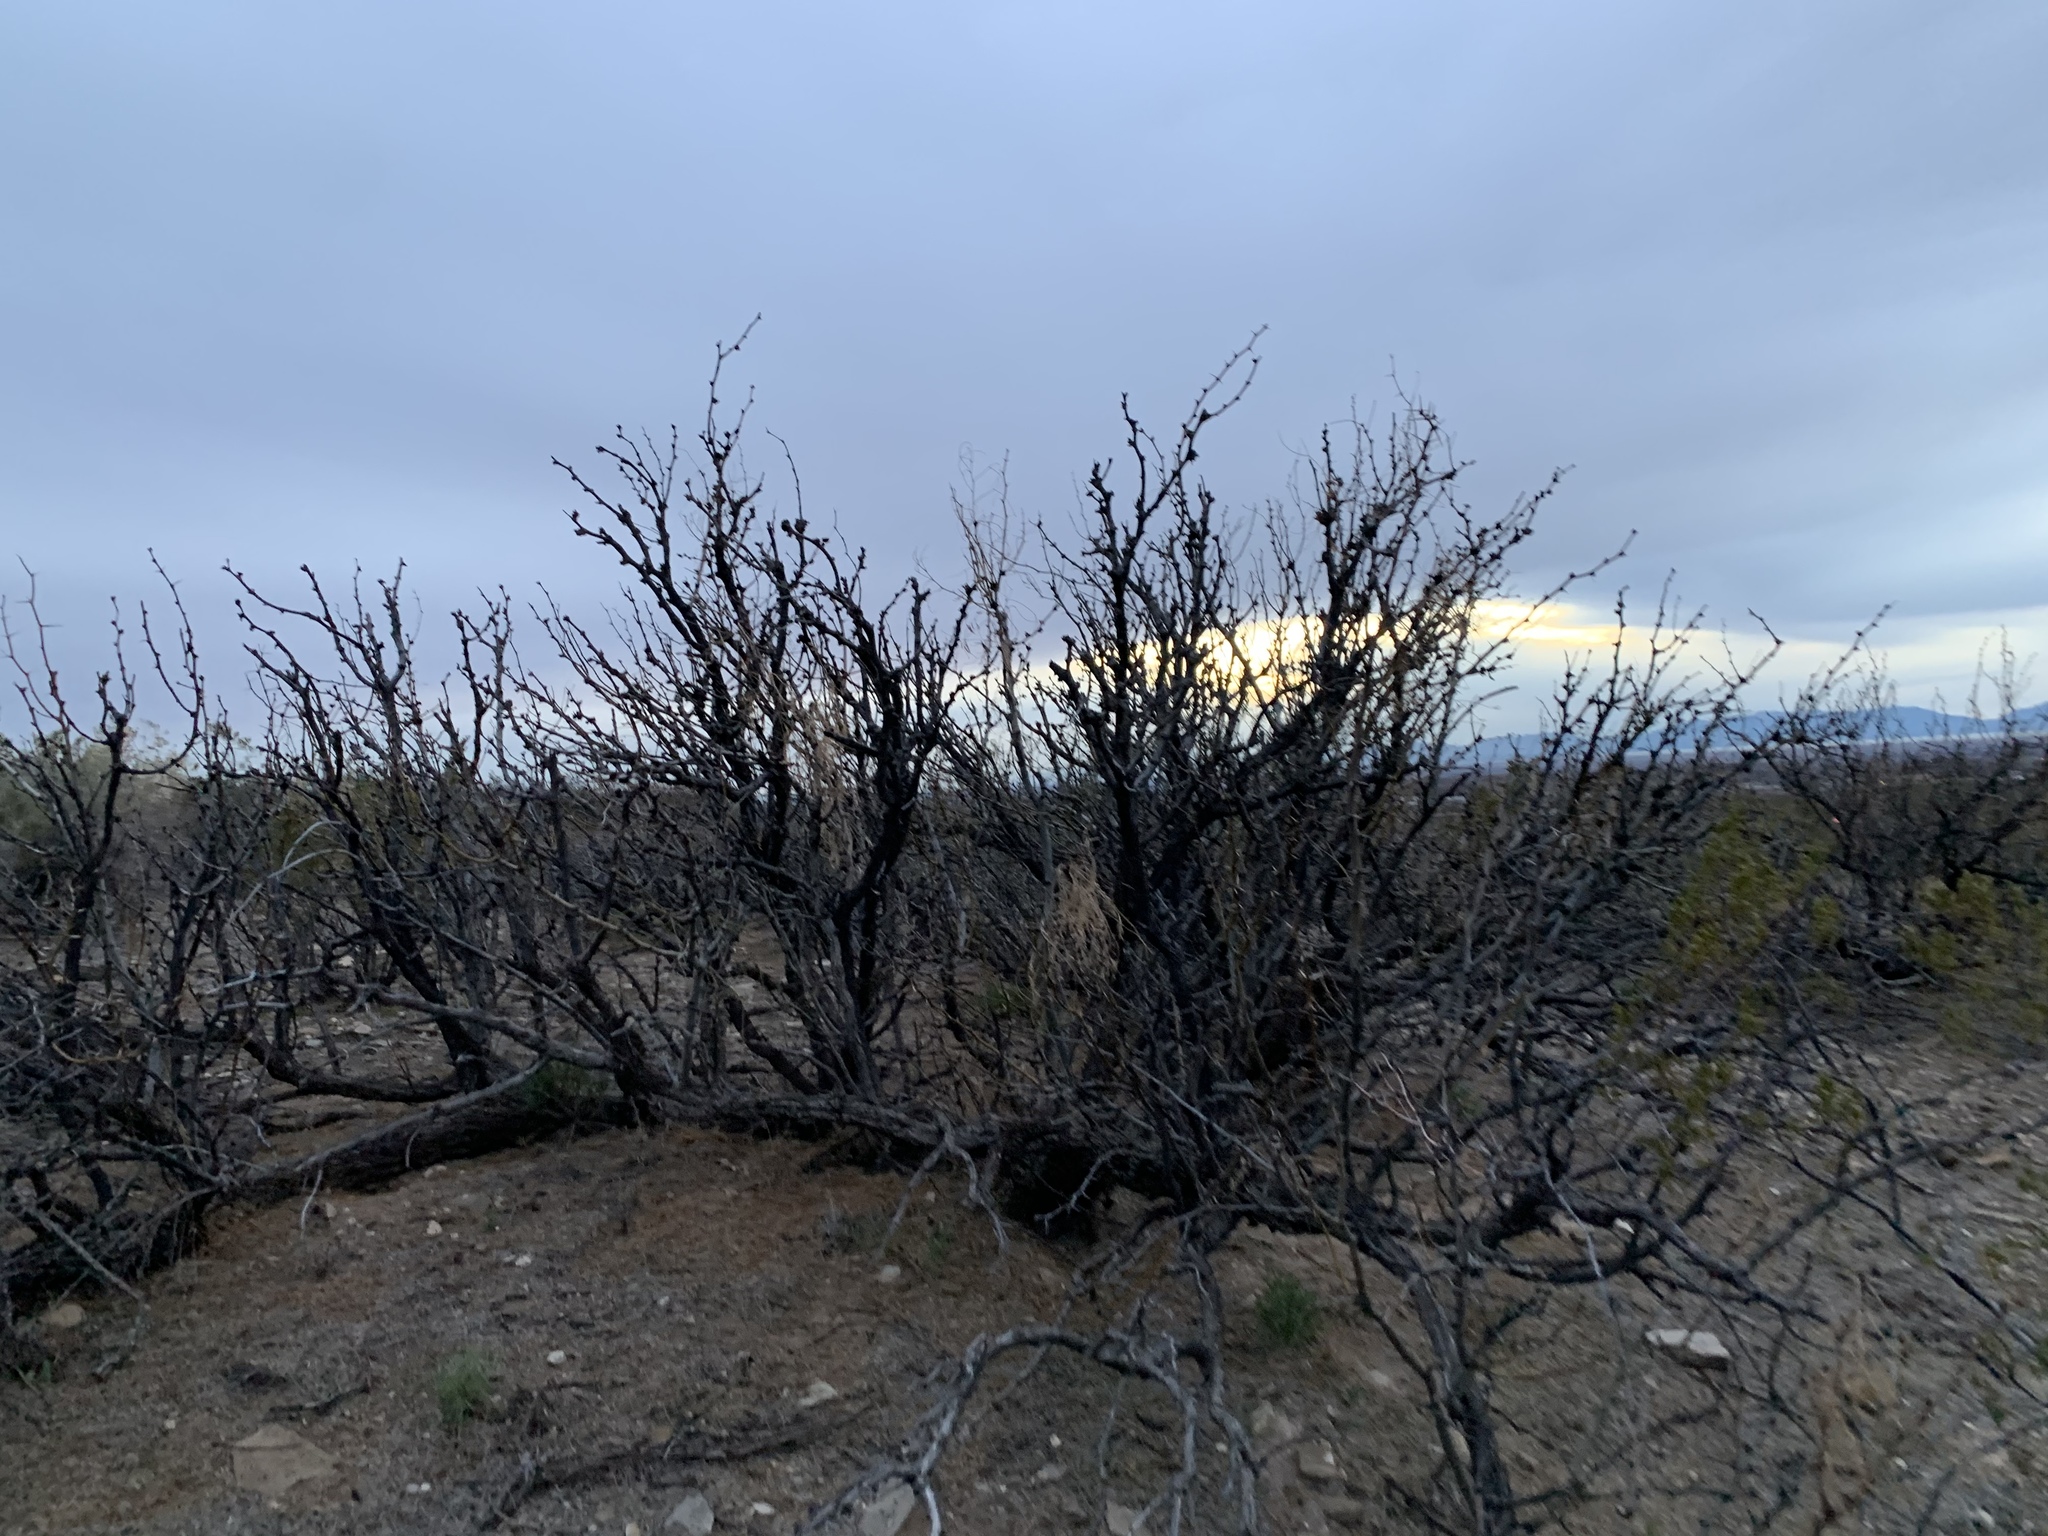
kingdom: Plantae
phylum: Tracheophyta
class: Magnoliopsida
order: Fabales
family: Fabaceae
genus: Prosopis
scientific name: Prosopis glandulosa
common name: Honey mesquite
